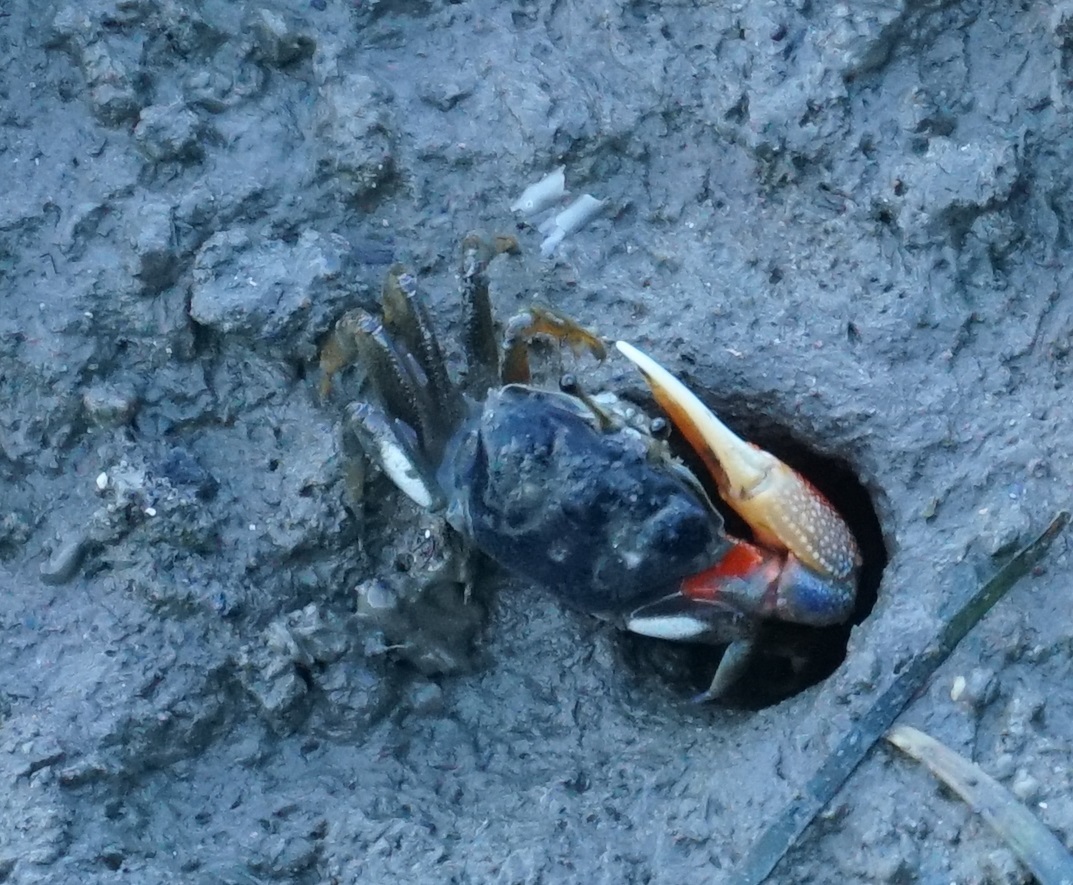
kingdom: Animalia
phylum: Arthropoda
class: Malacostraca
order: Decapoda
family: Ocypodidae
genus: Tubuca
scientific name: Tubuca dussumieri
